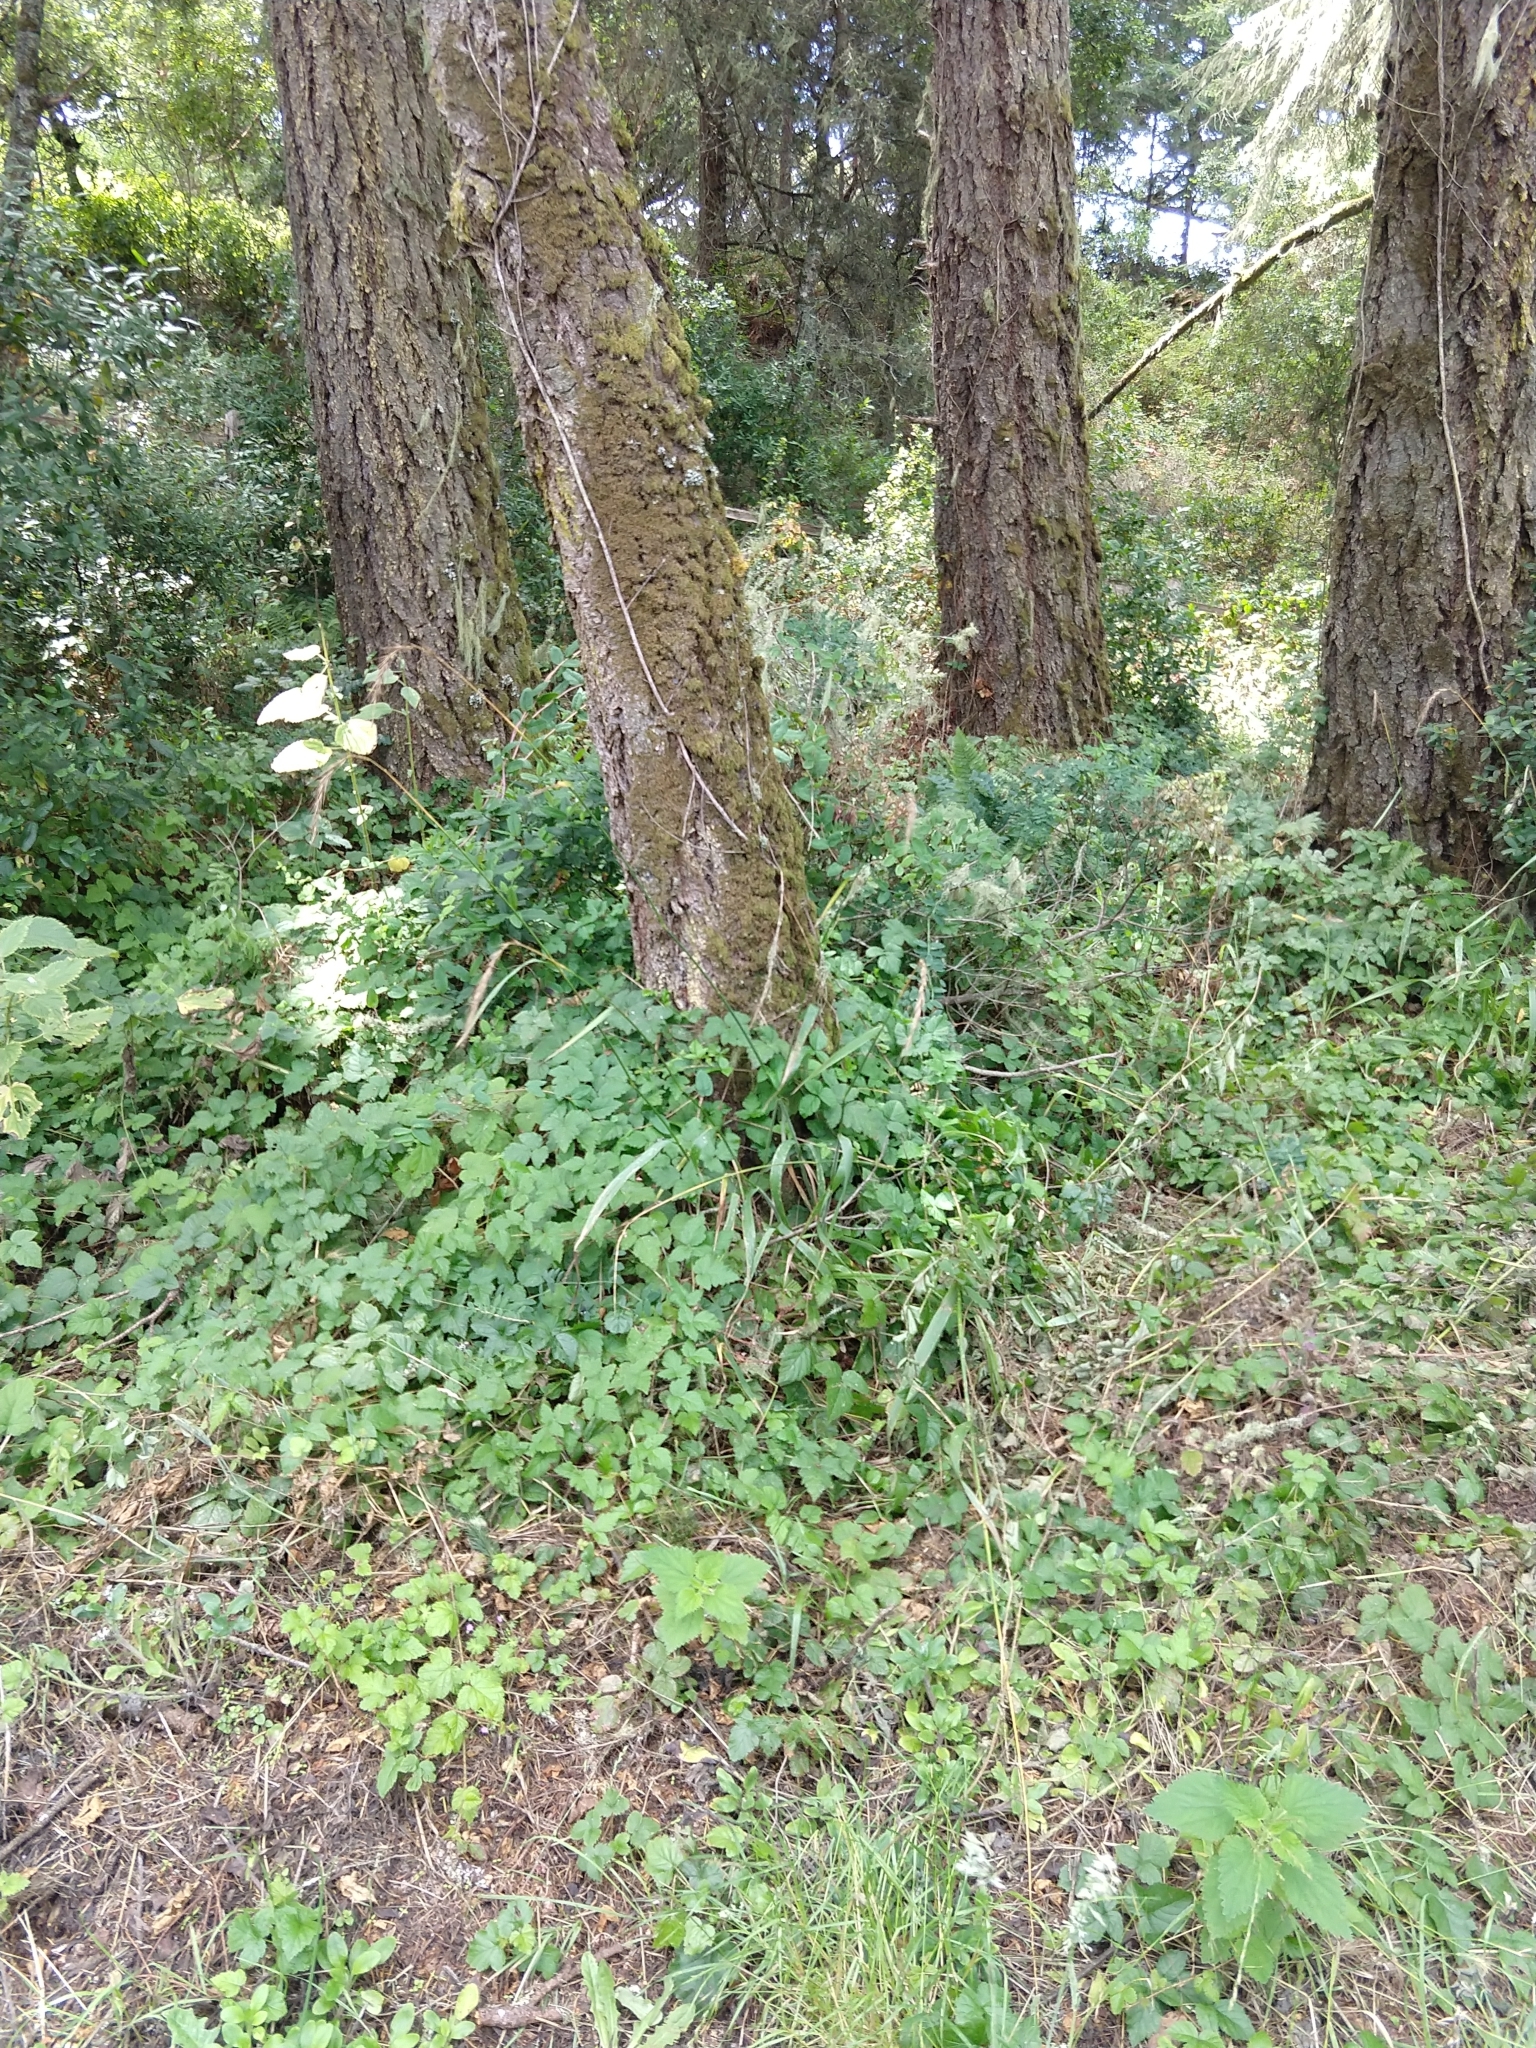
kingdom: Plantae
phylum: Tracheophyta
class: Liliopsida
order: Poales
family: Poaceae
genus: Elymus
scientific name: Elymus californicus
